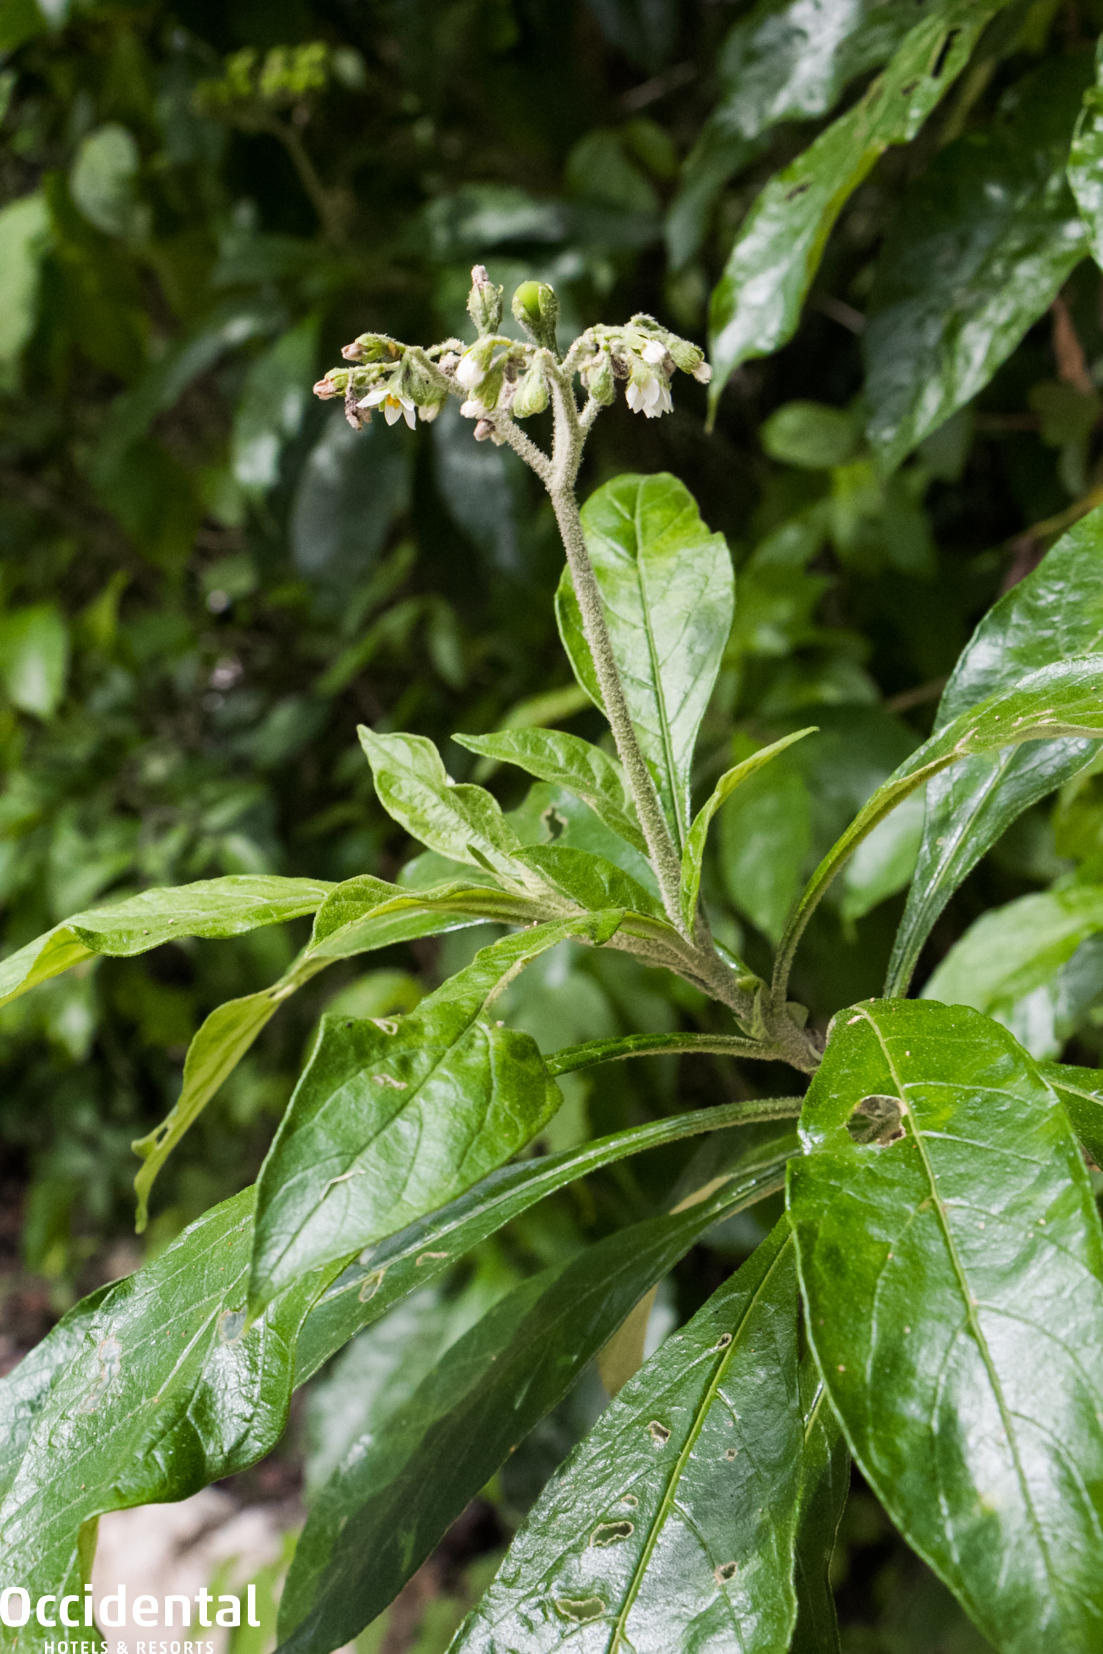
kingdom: Plantae
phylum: Tracheophyta
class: Magnoliopsida
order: Solanales
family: Solanaceae
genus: Solanum
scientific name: Solanum umbellatum
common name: Nightshade
